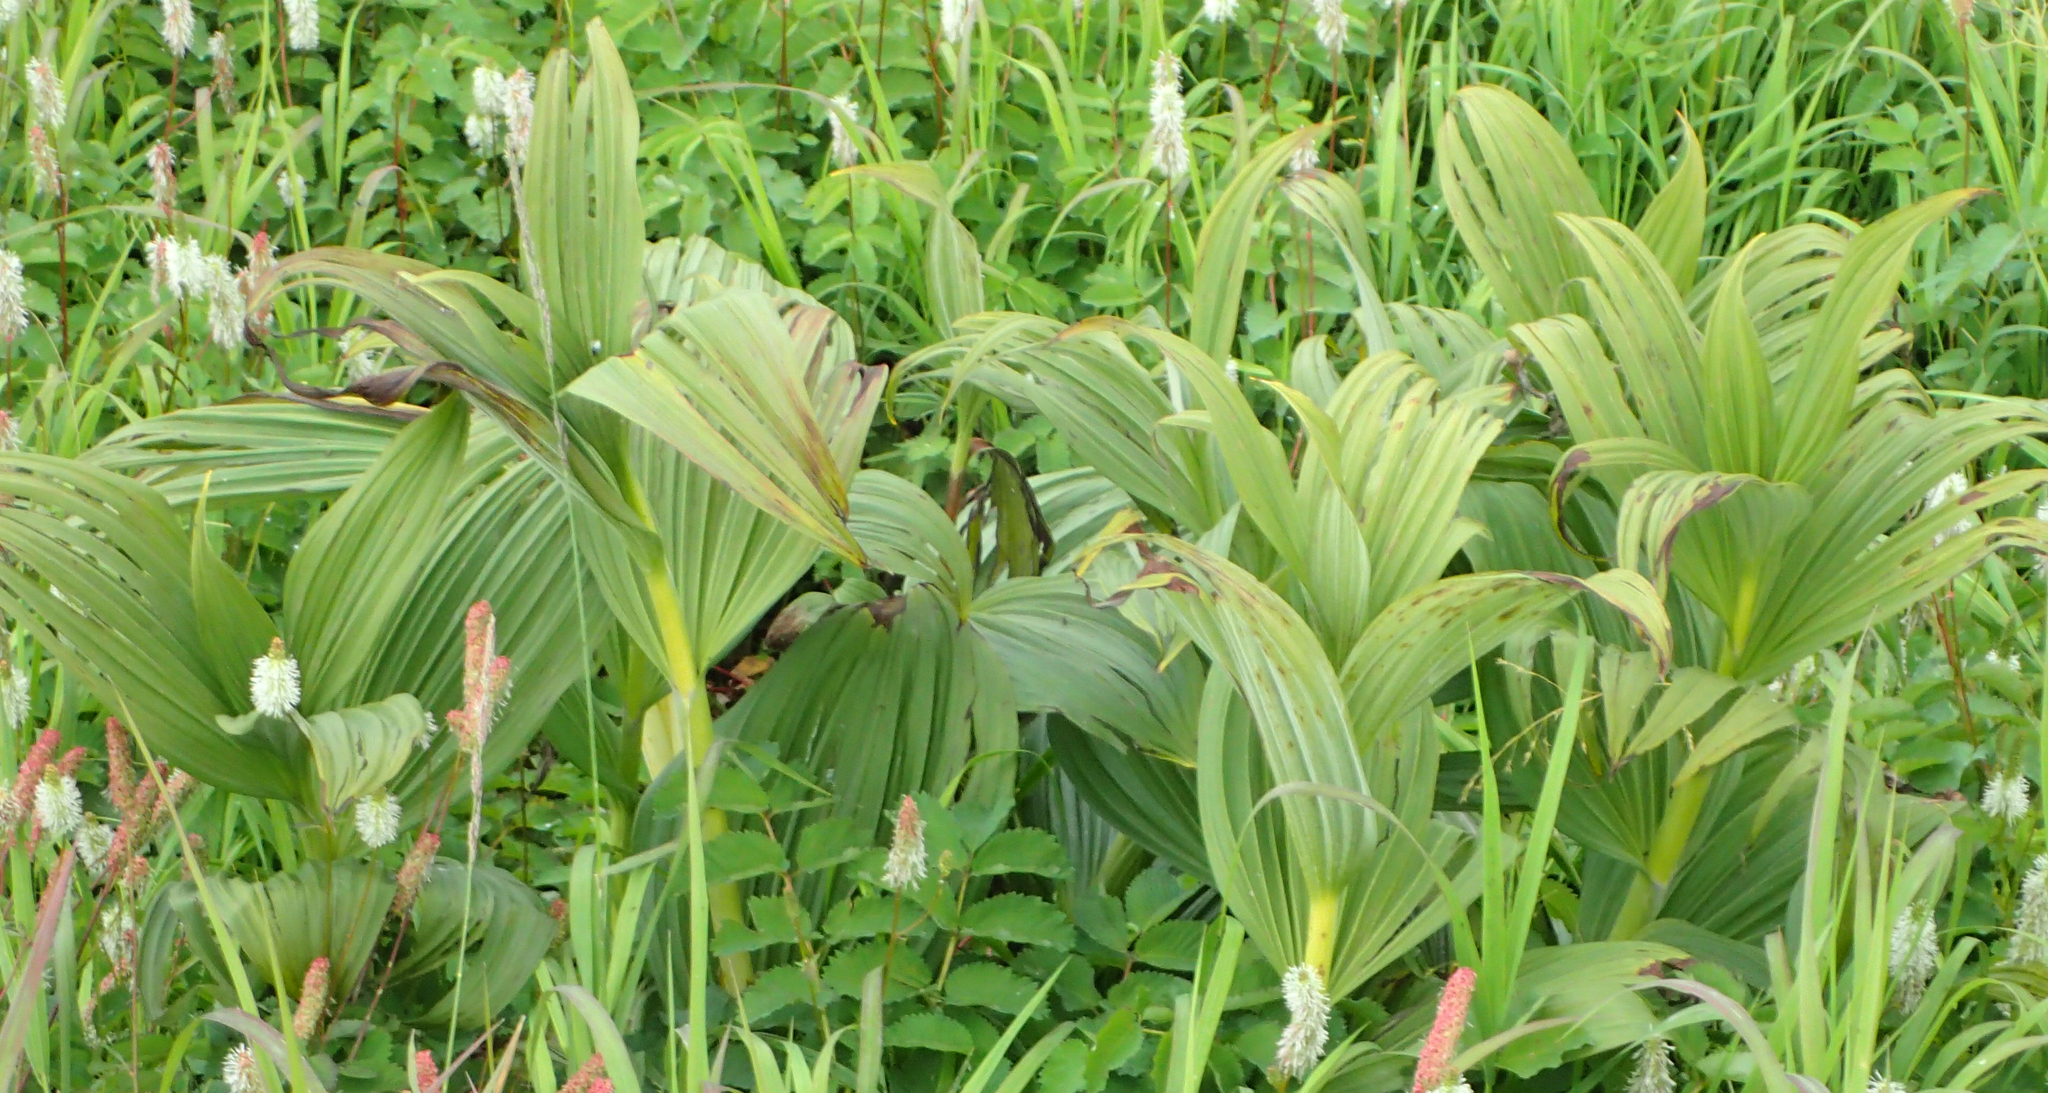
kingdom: Plantae
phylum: Tracheophyta
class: Liliopsida
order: Liliales
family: Melanthiaceae
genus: Veratrum
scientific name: Veratrum viride
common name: American false hellebore
